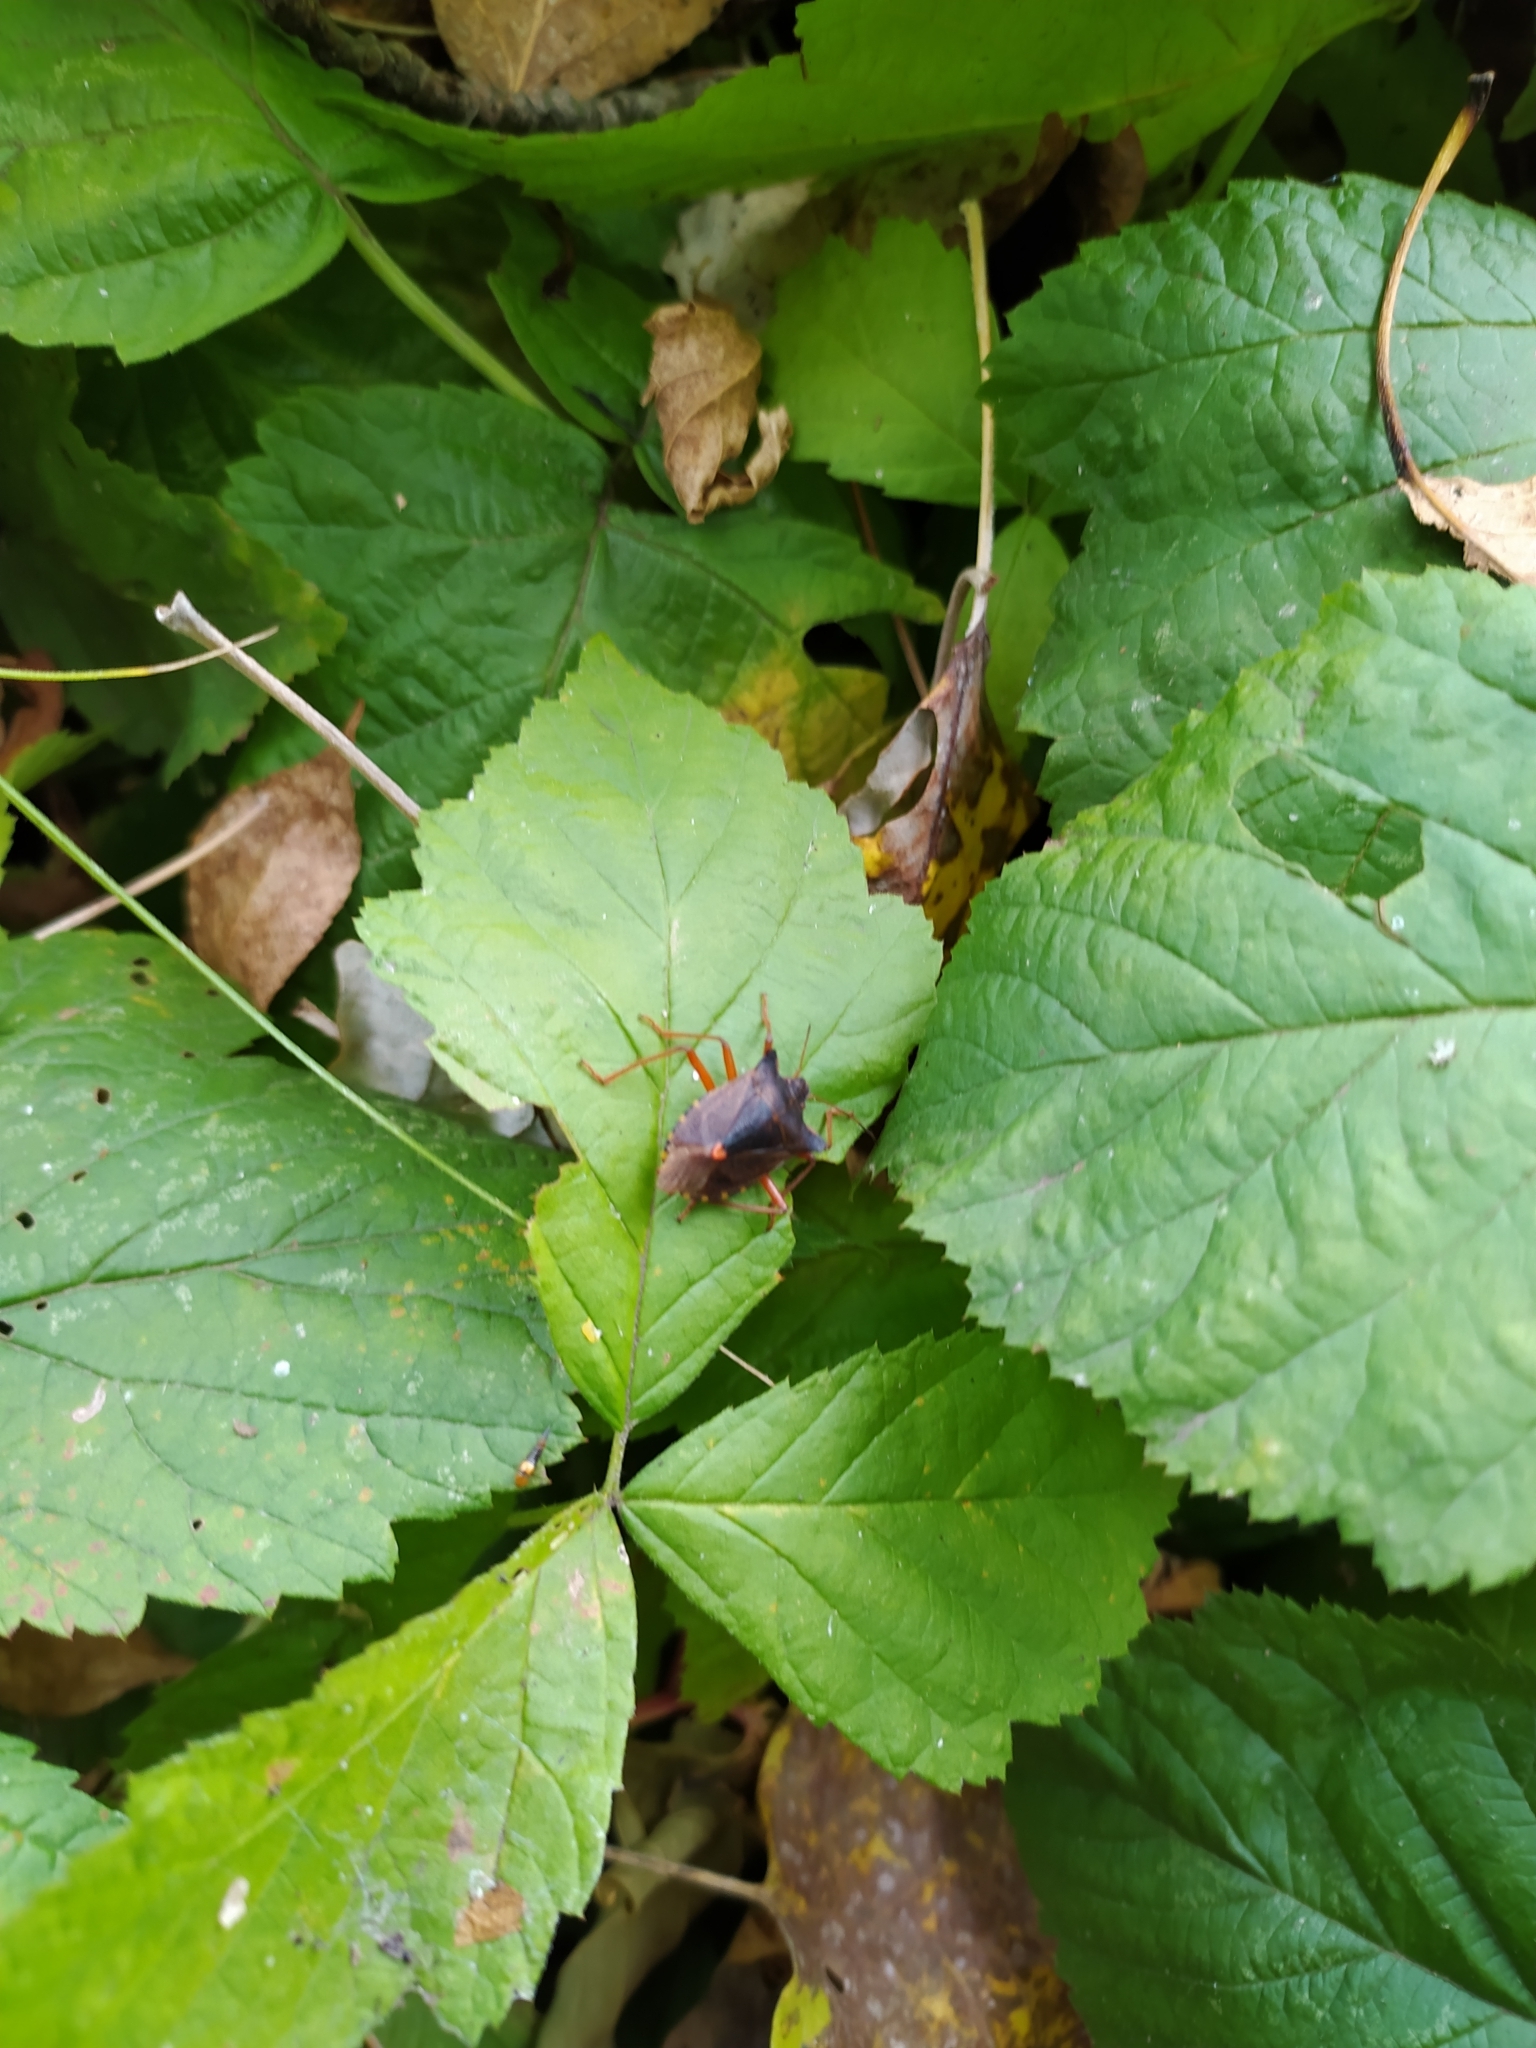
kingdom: Animalia
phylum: Arthropoda
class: Insecta
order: Hemiptera
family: Pentatomidae
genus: Pentatoma
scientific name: Pentatoma rufipes
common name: Forest bug
